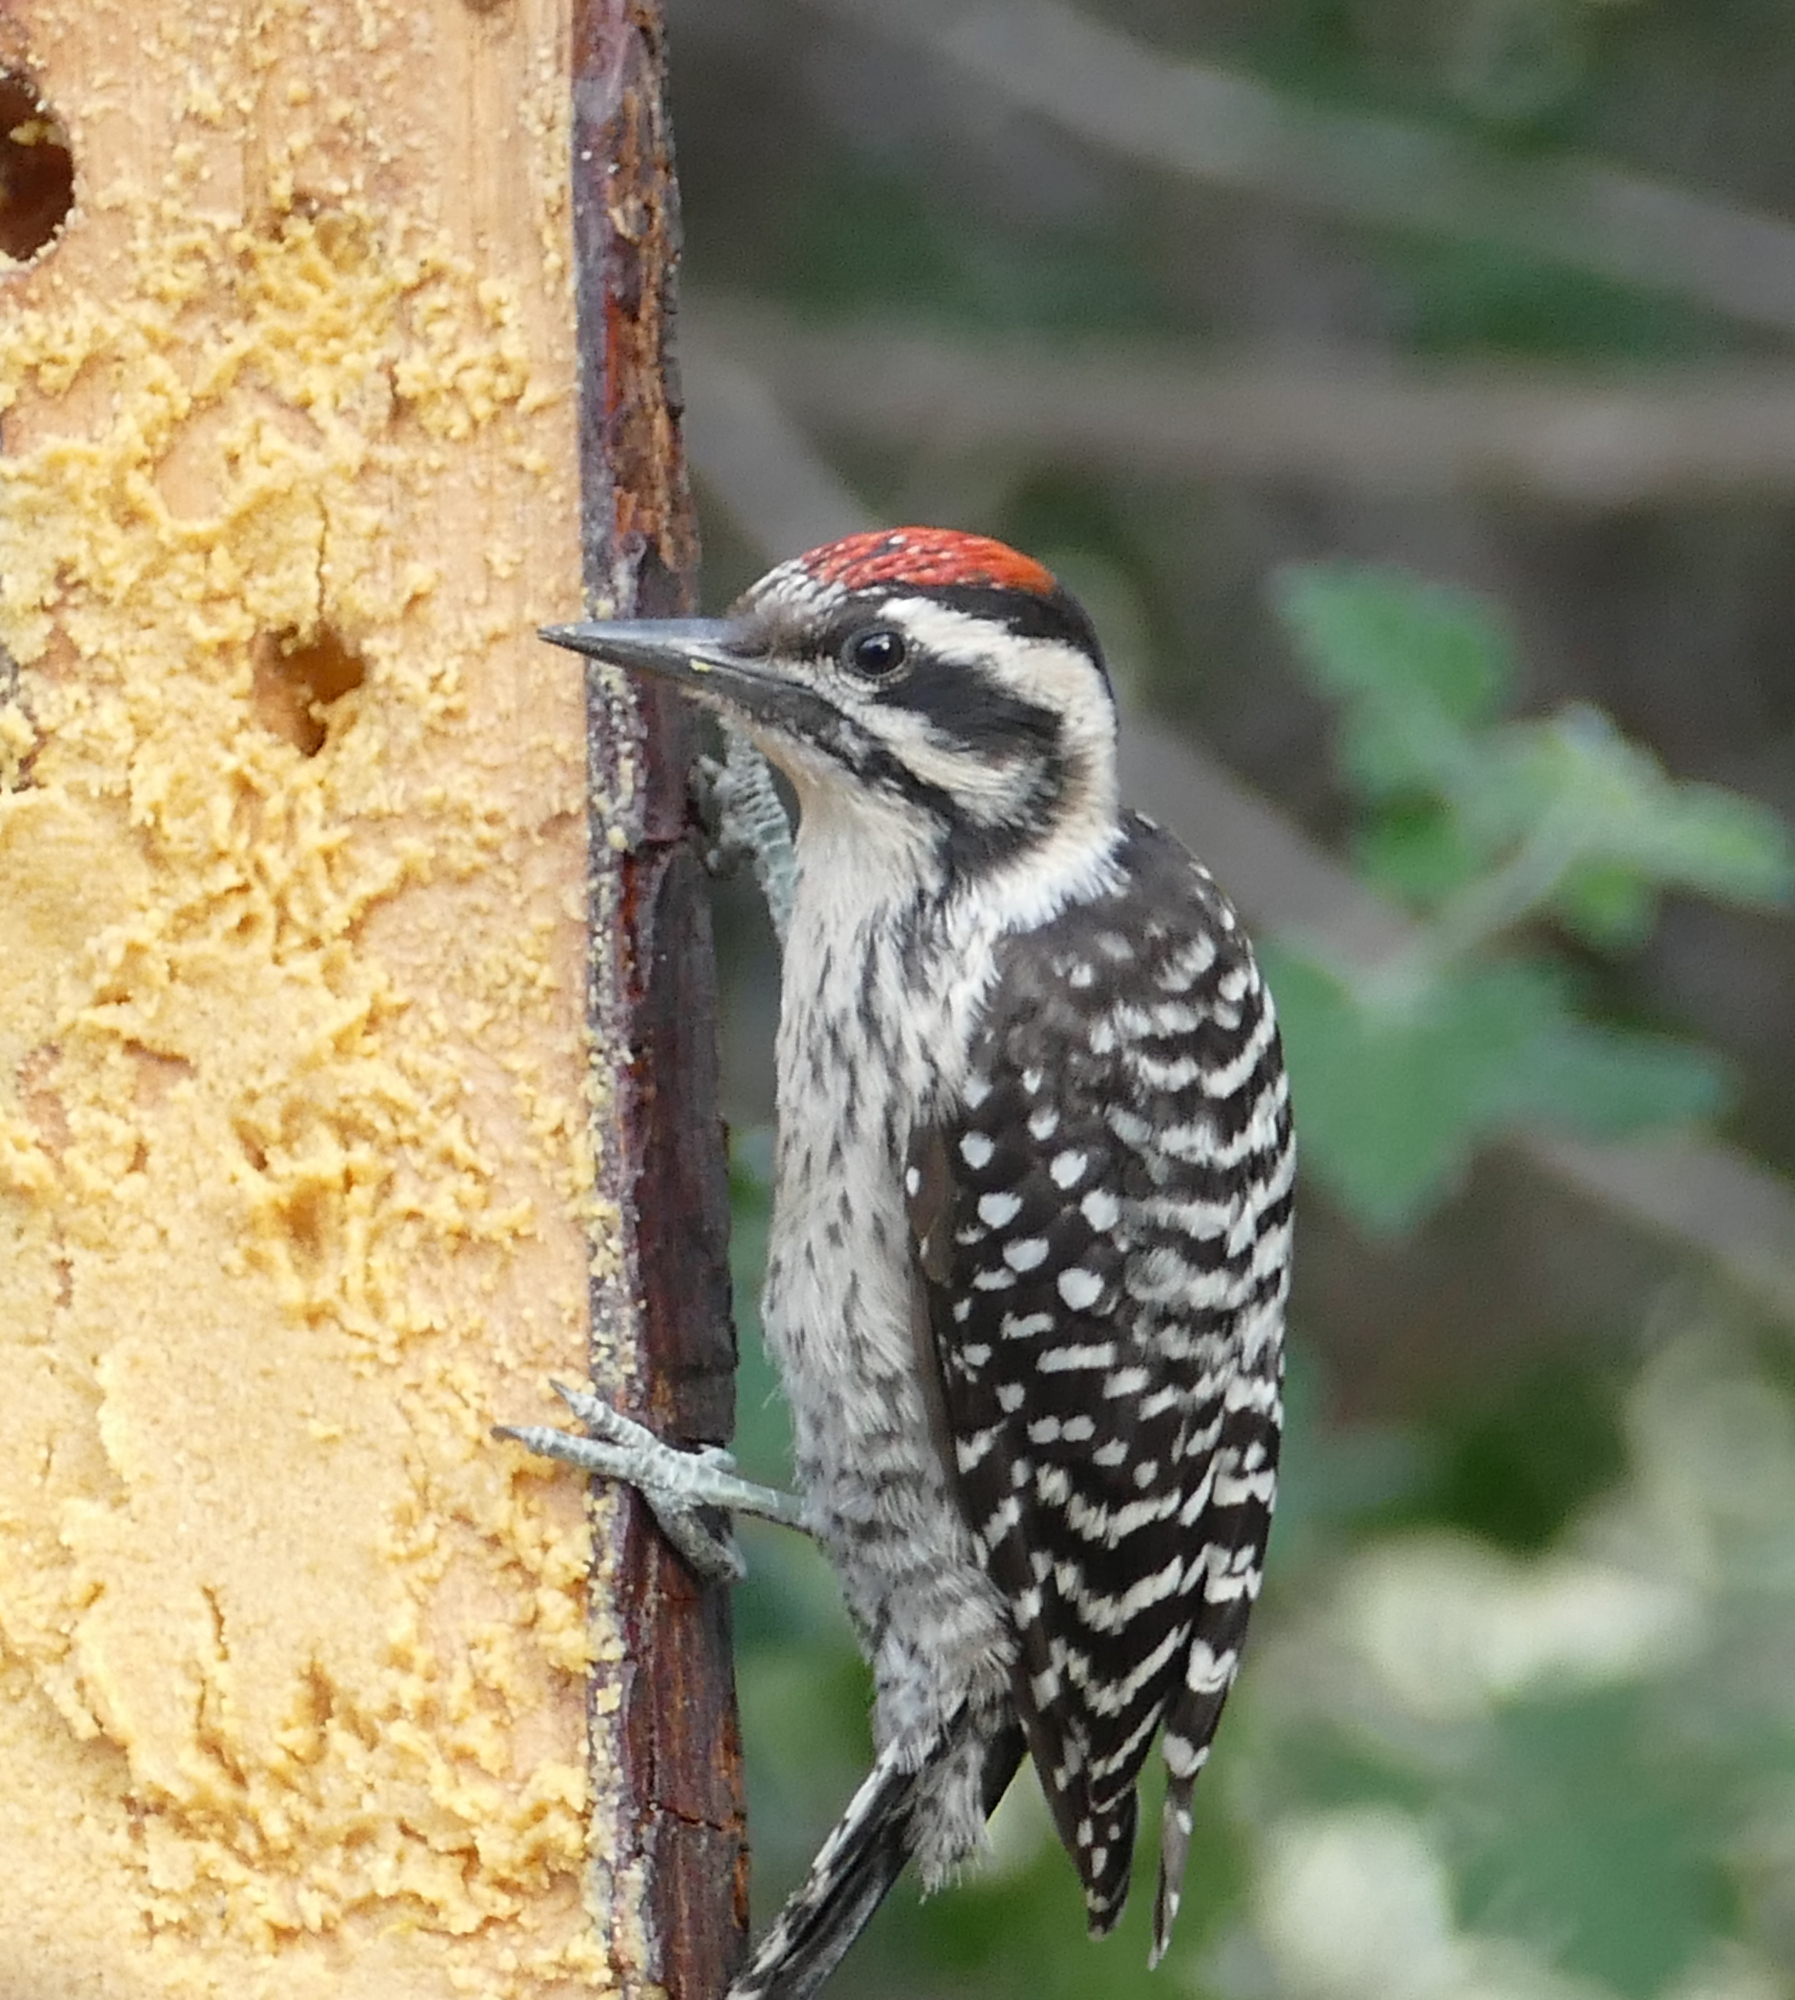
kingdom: Animalia
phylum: Chordata
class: Aves
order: Piciformes
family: Picidae
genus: Dryobates
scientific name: Dryobates scalaris
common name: Ladder-backed woodpecker
